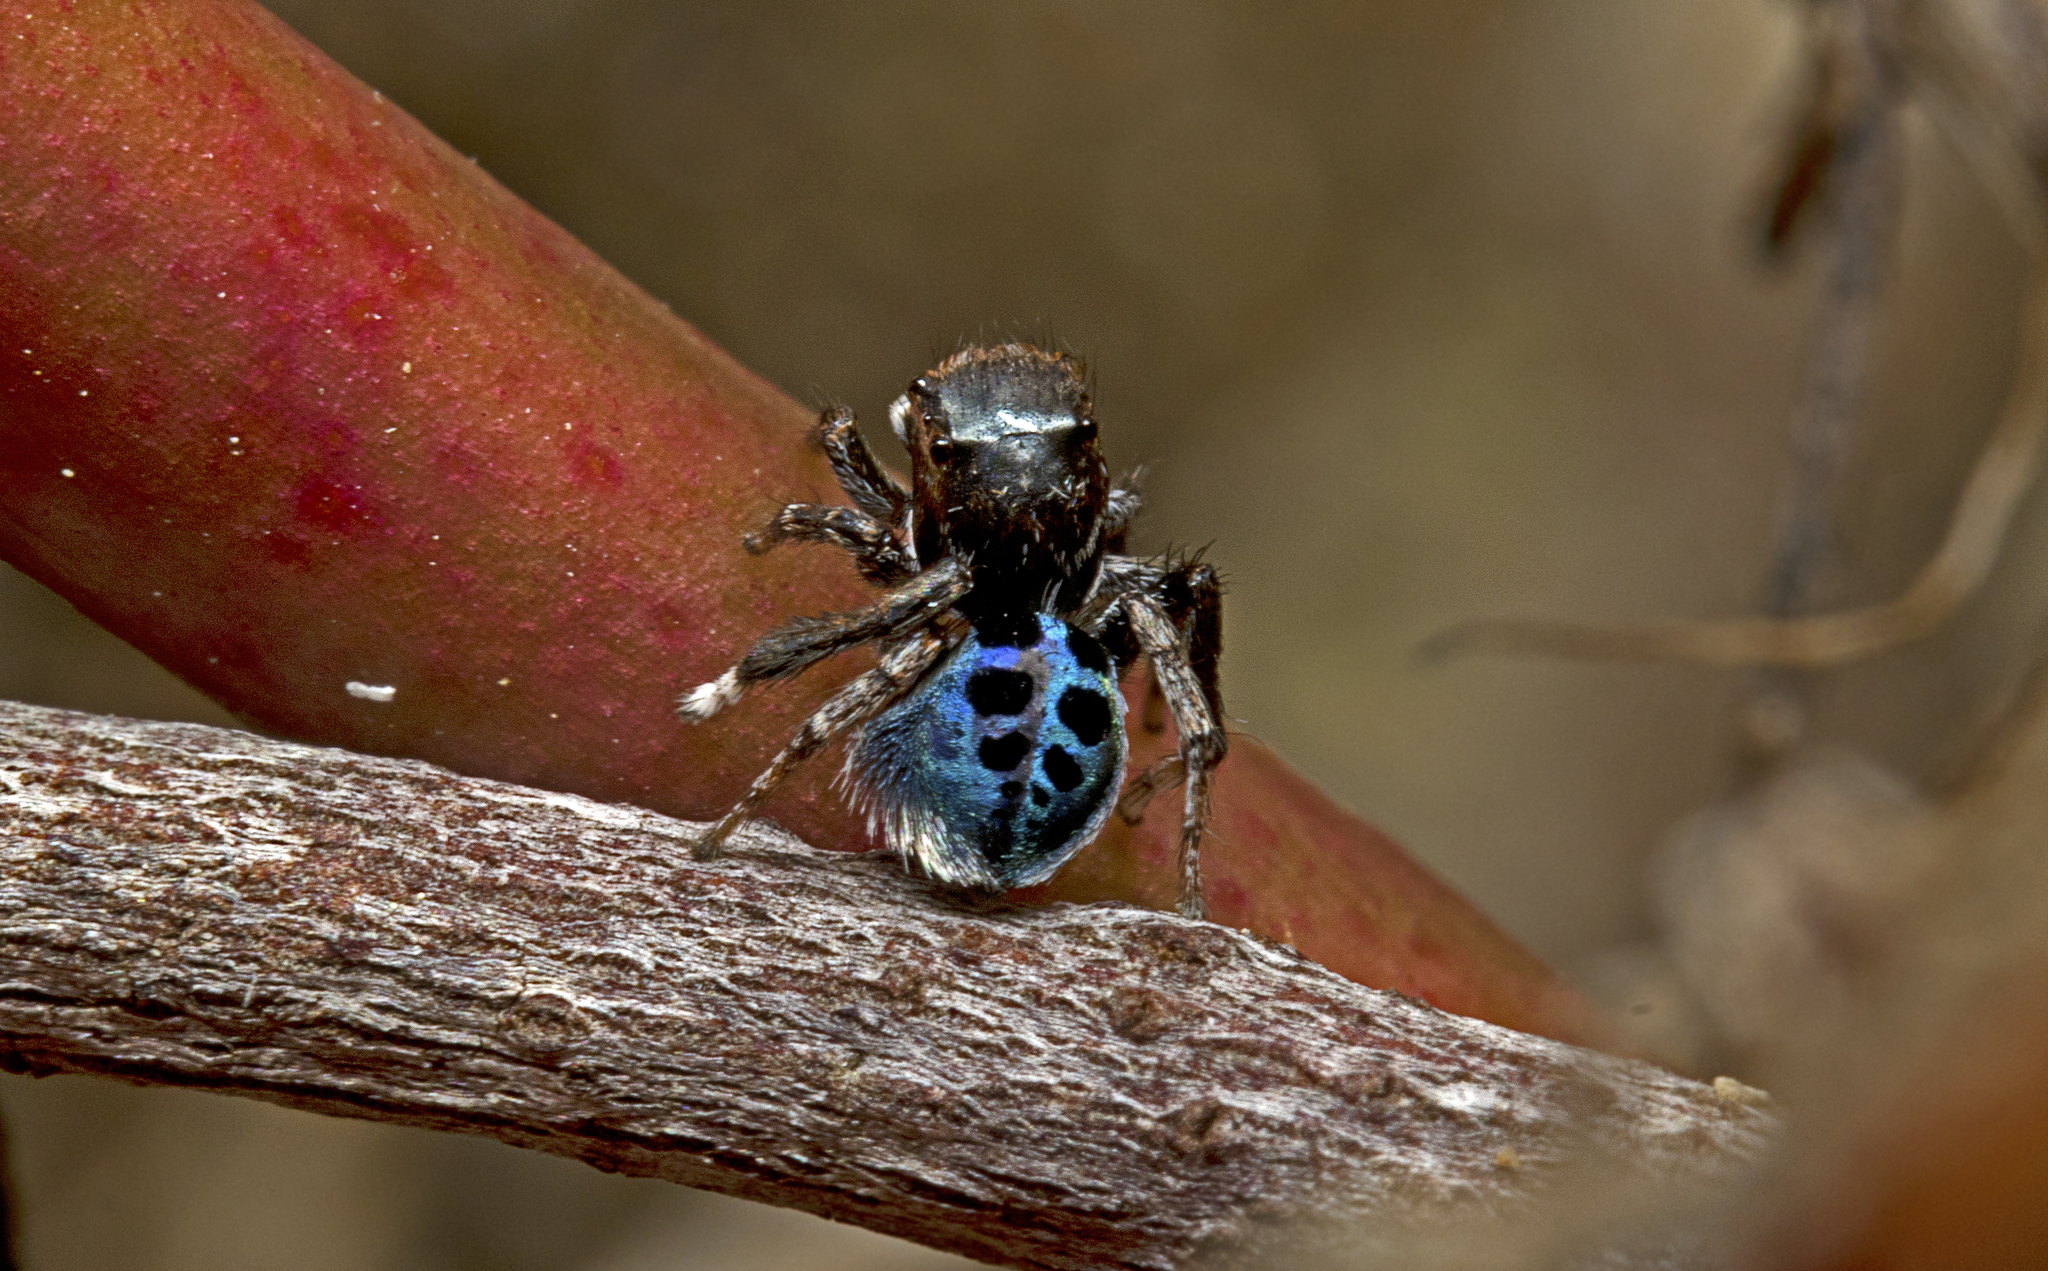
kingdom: Animalia
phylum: Arthropoda
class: Arachnida
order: Araneae
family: Salticidae
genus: Maratus
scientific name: Maratus nigromaculatus
